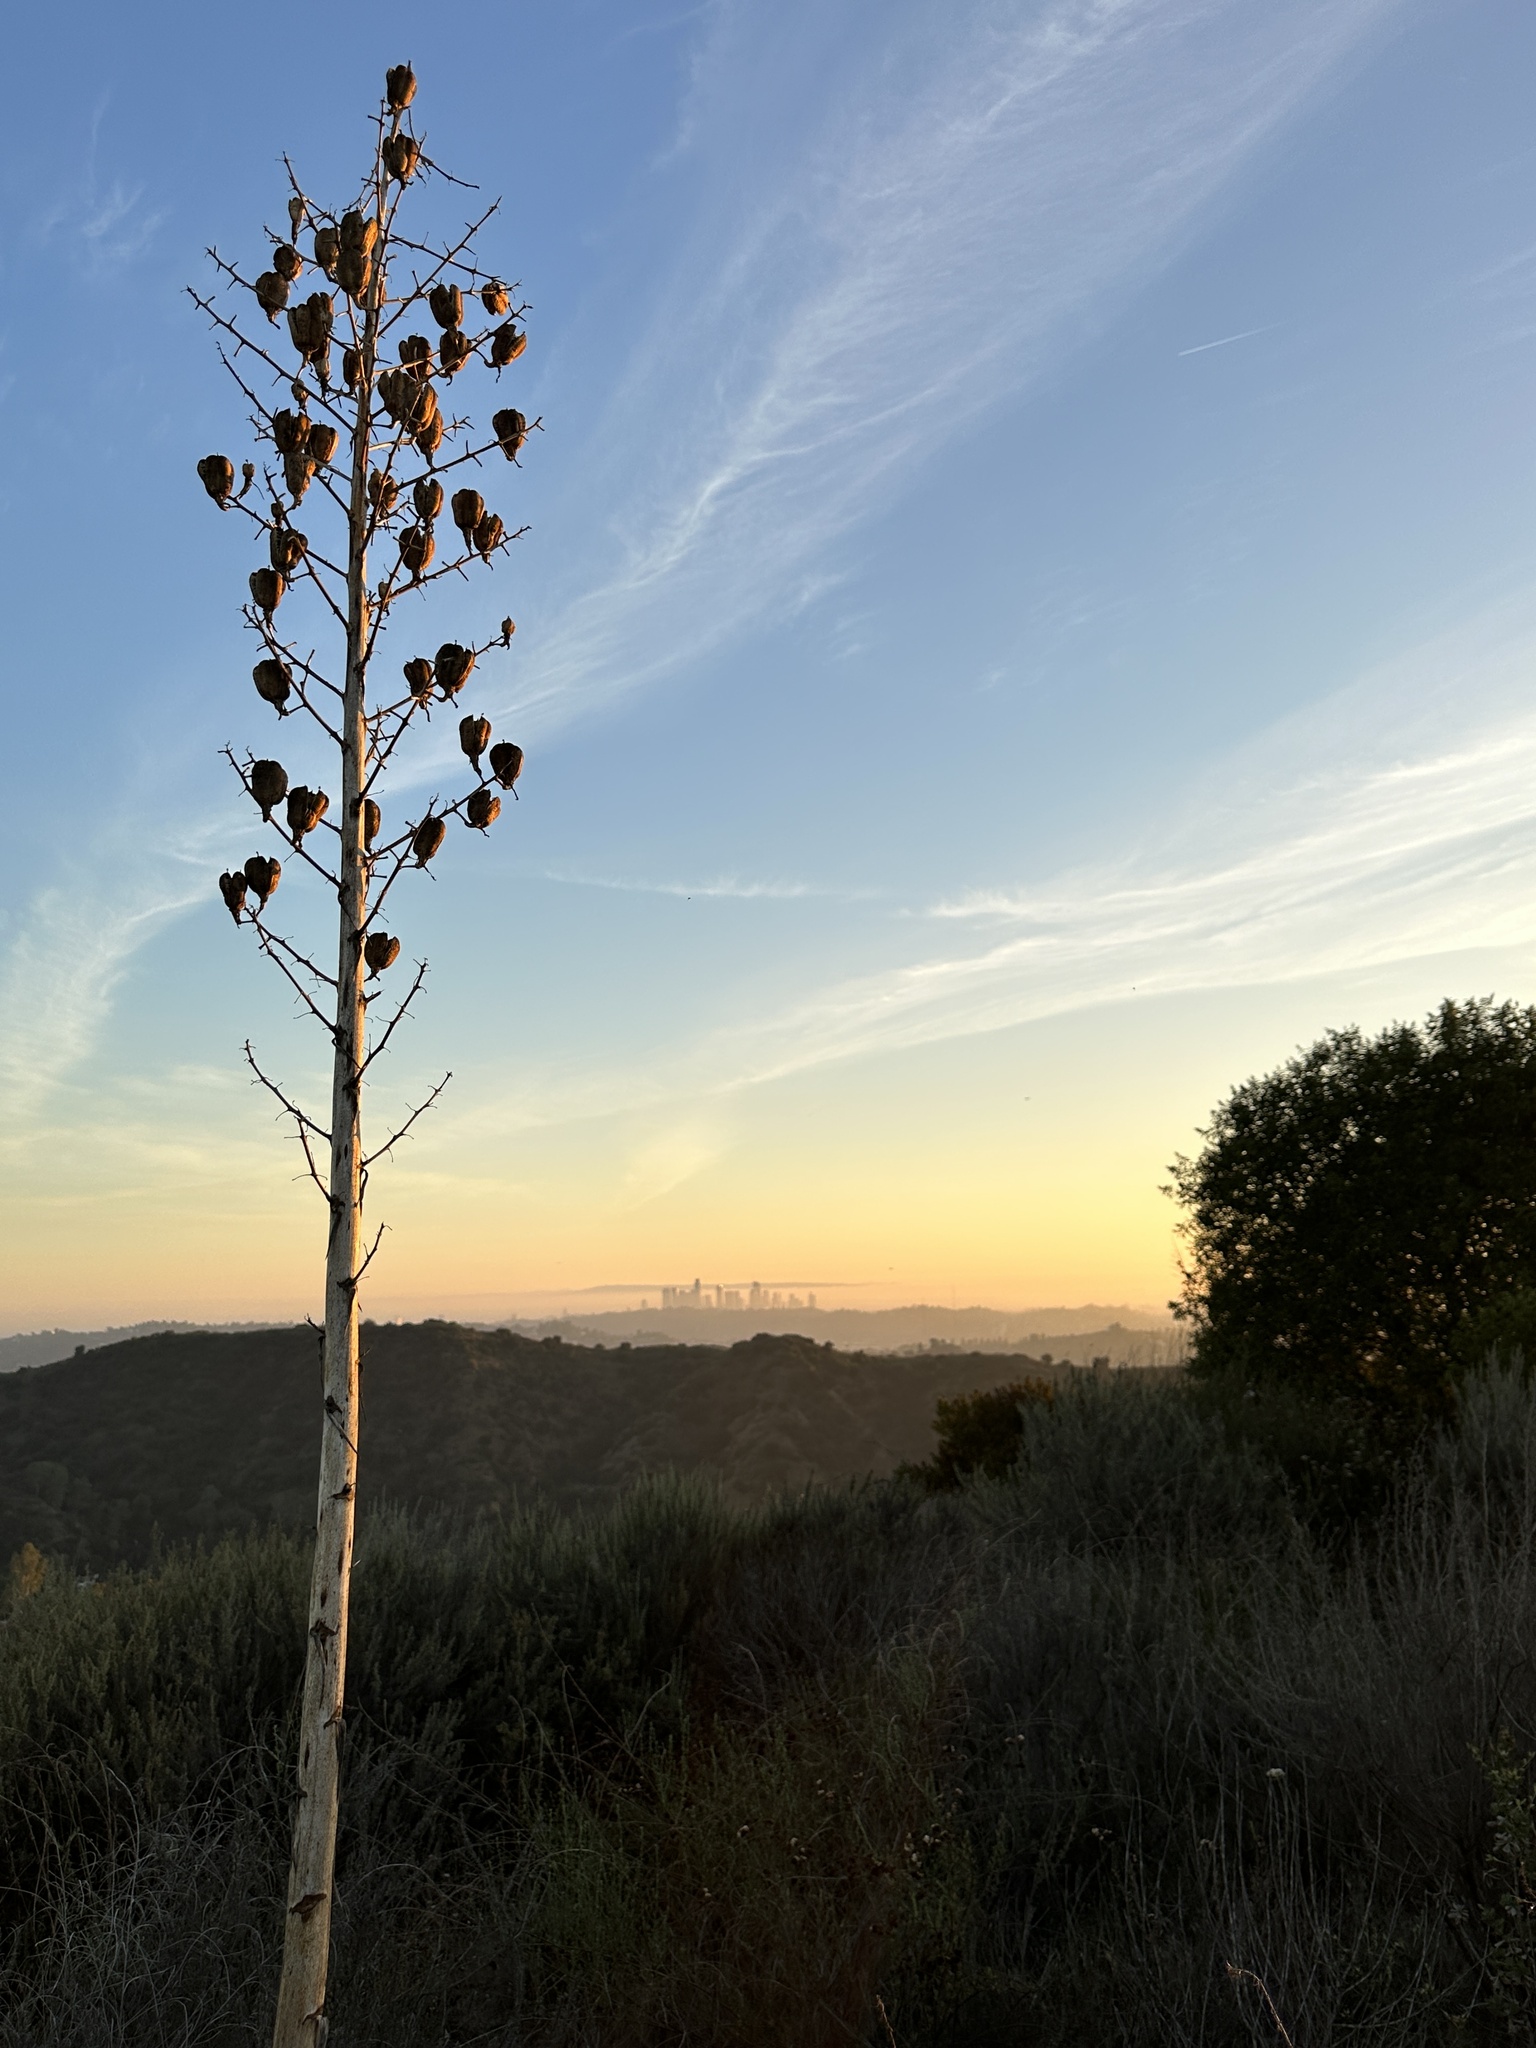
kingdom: Plantae
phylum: Tracheophyta
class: Liliopsida
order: Asparagales
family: Asparagaceae
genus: Hesperoyucca
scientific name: Hesperoyucca whipplei
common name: Our lord's-candle
